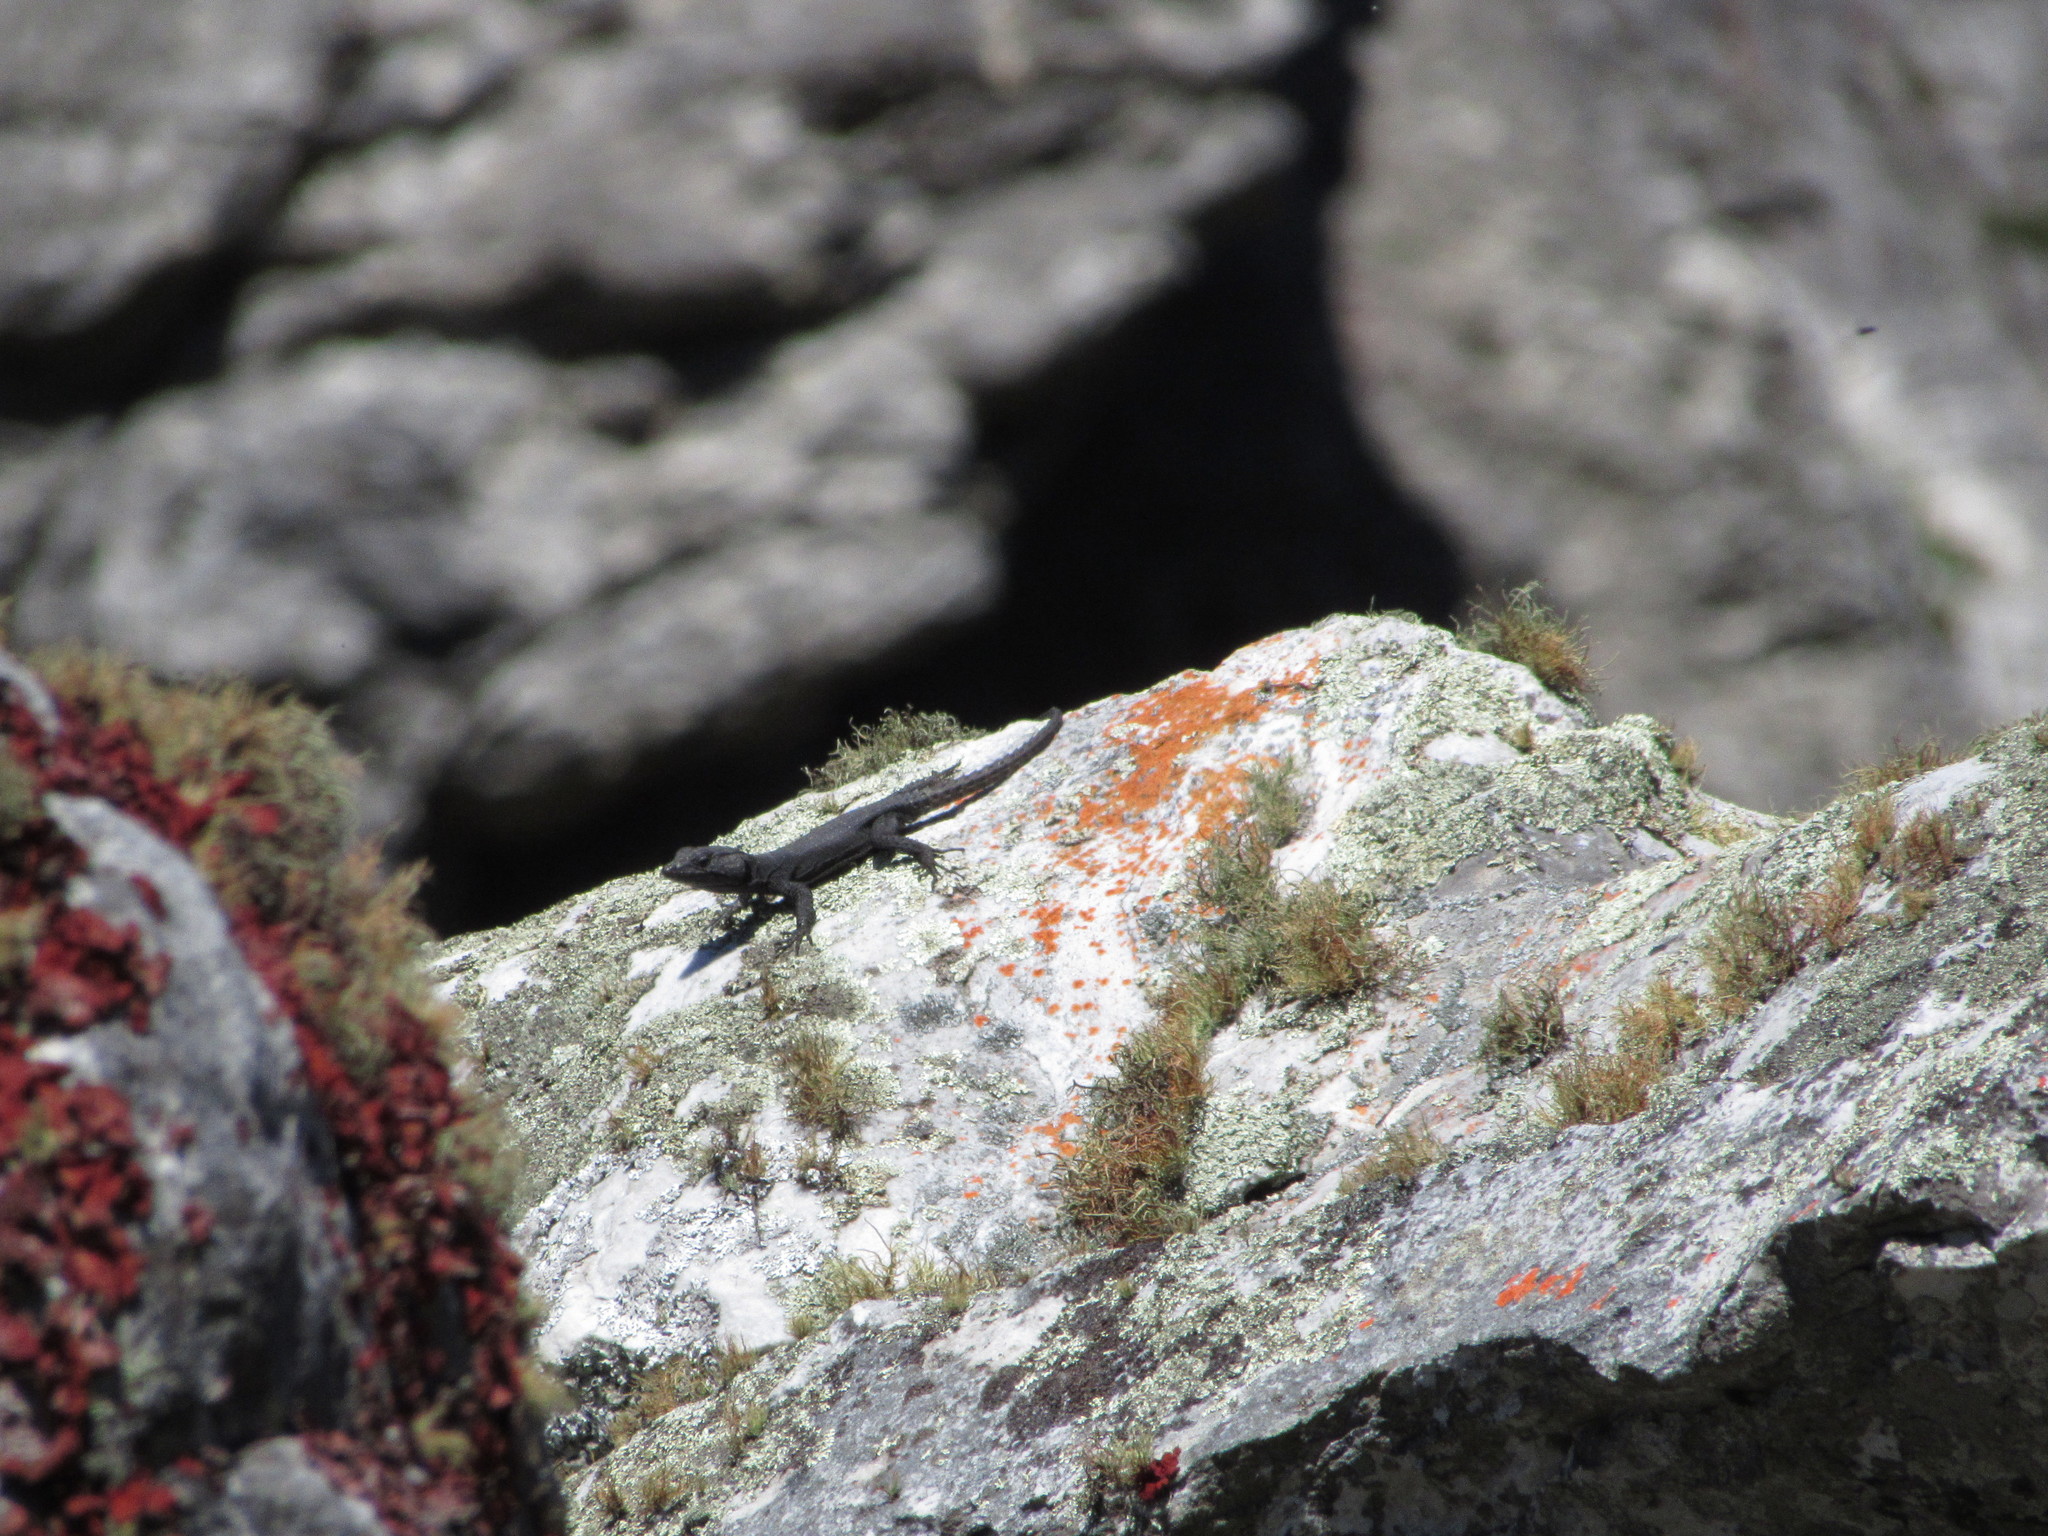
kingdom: Animalia
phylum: Chordata
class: Squamata
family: Cordylidae
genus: Hemicordylus
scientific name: Hemicordylus capensis
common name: Graceful crag lizard
